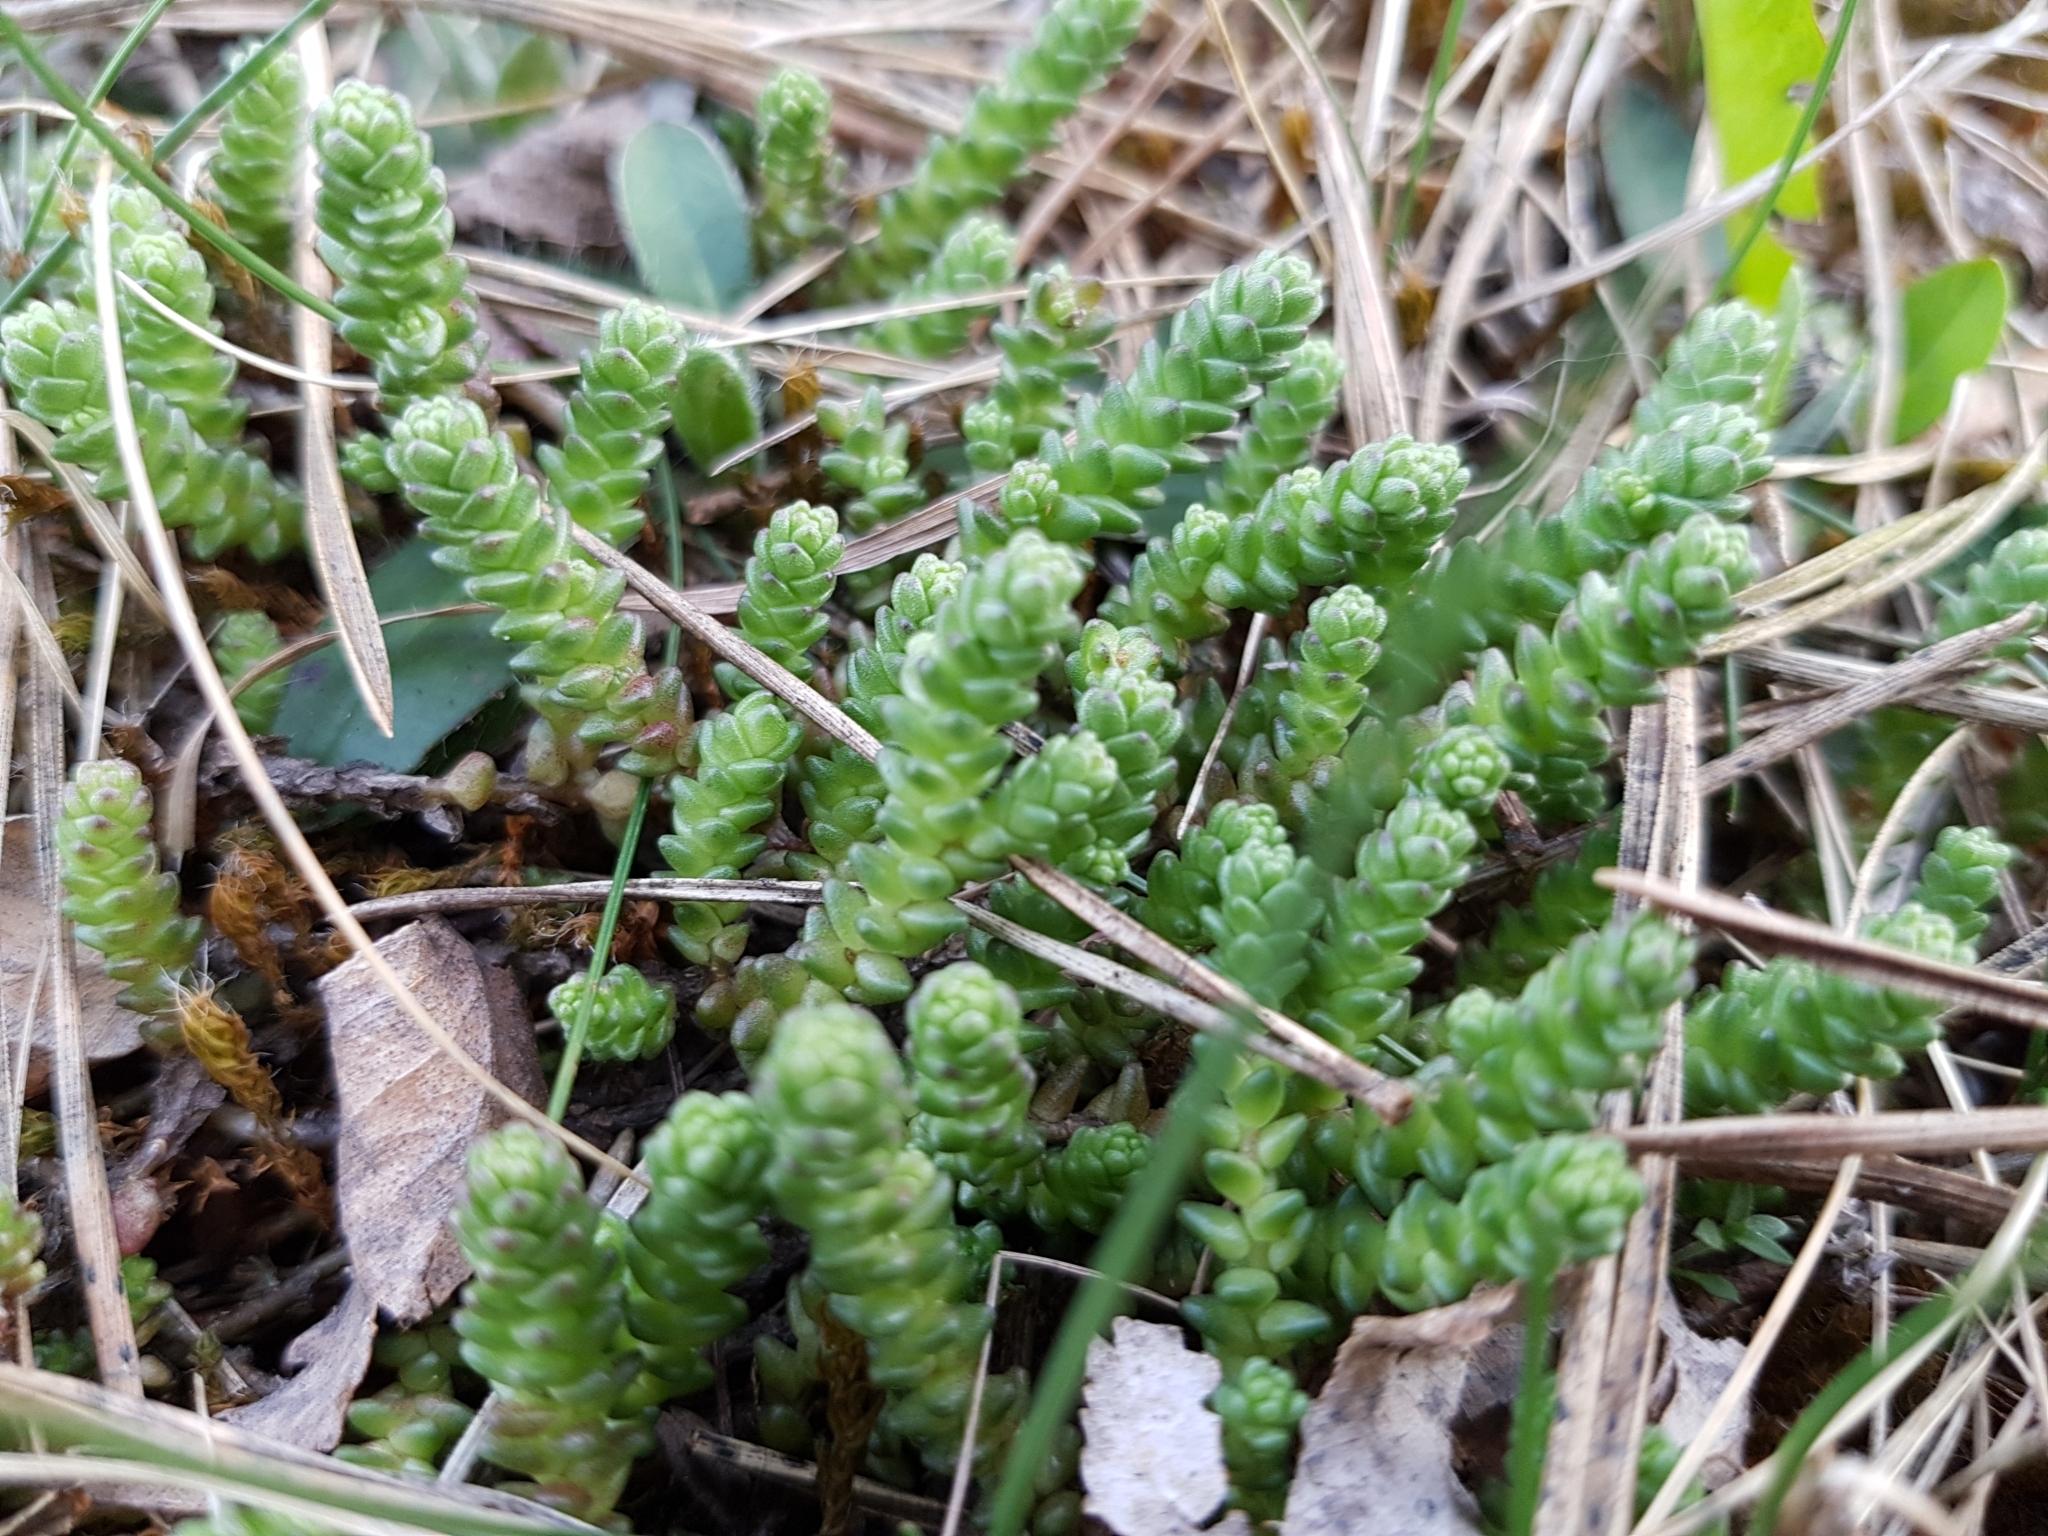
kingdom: Plantae
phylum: Tracheophyta
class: Magnoliopsida
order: Saxifragales
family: Crassulaceae
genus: Sedum
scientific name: Sedum acre
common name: Biting stonecrop
